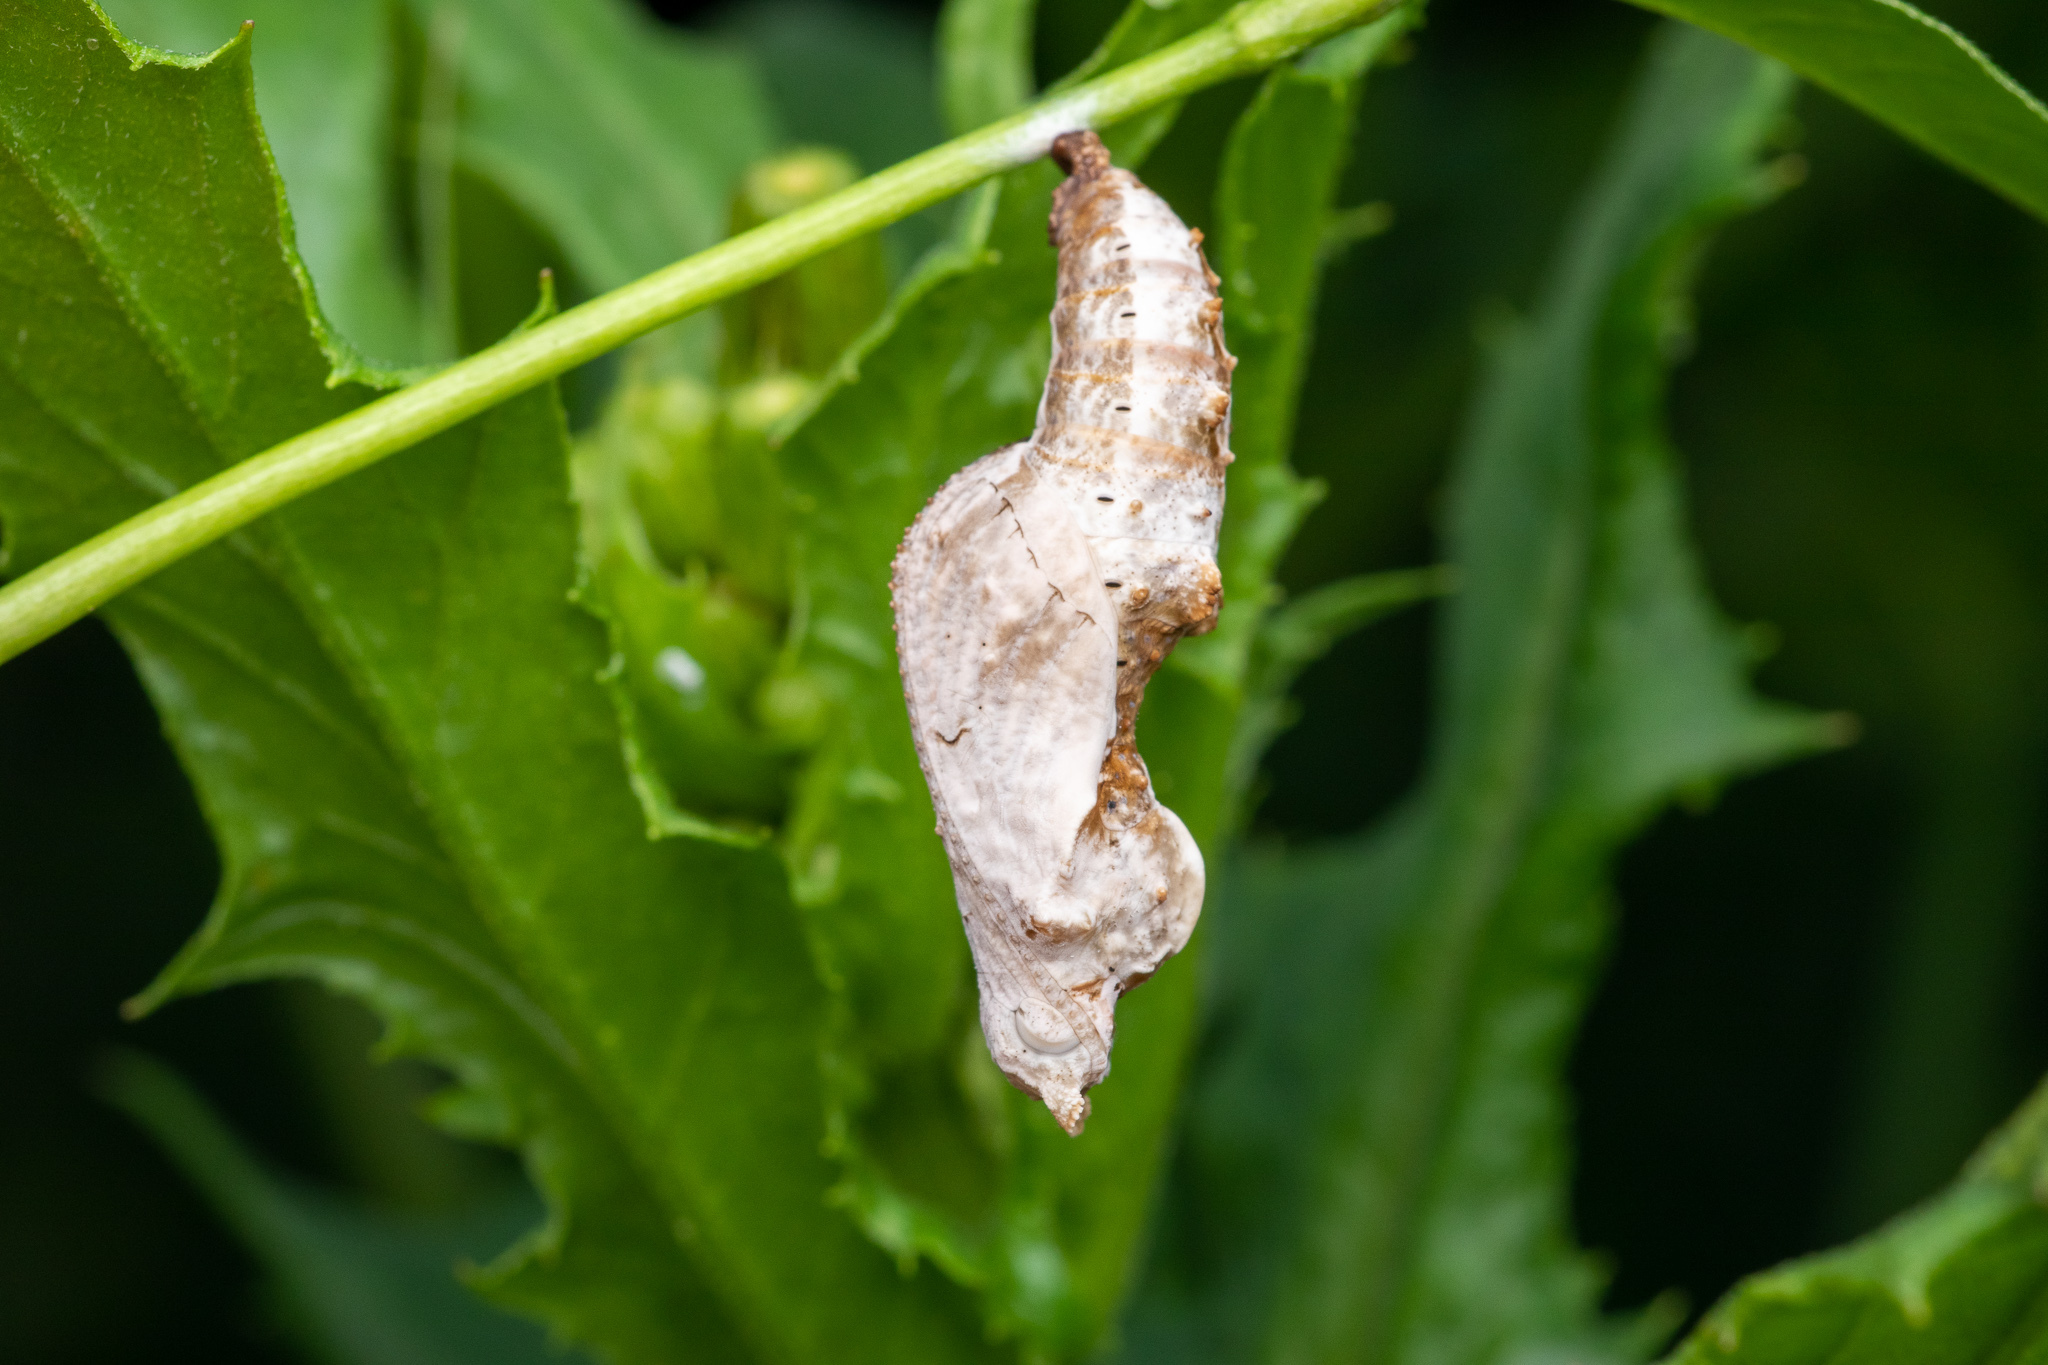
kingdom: Animalia
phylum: Arthropoda
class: Insecta
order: Lepidoptera
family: Nymphalidae
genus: Dione
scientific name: Dione vanillae
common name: Gulf fritillary
